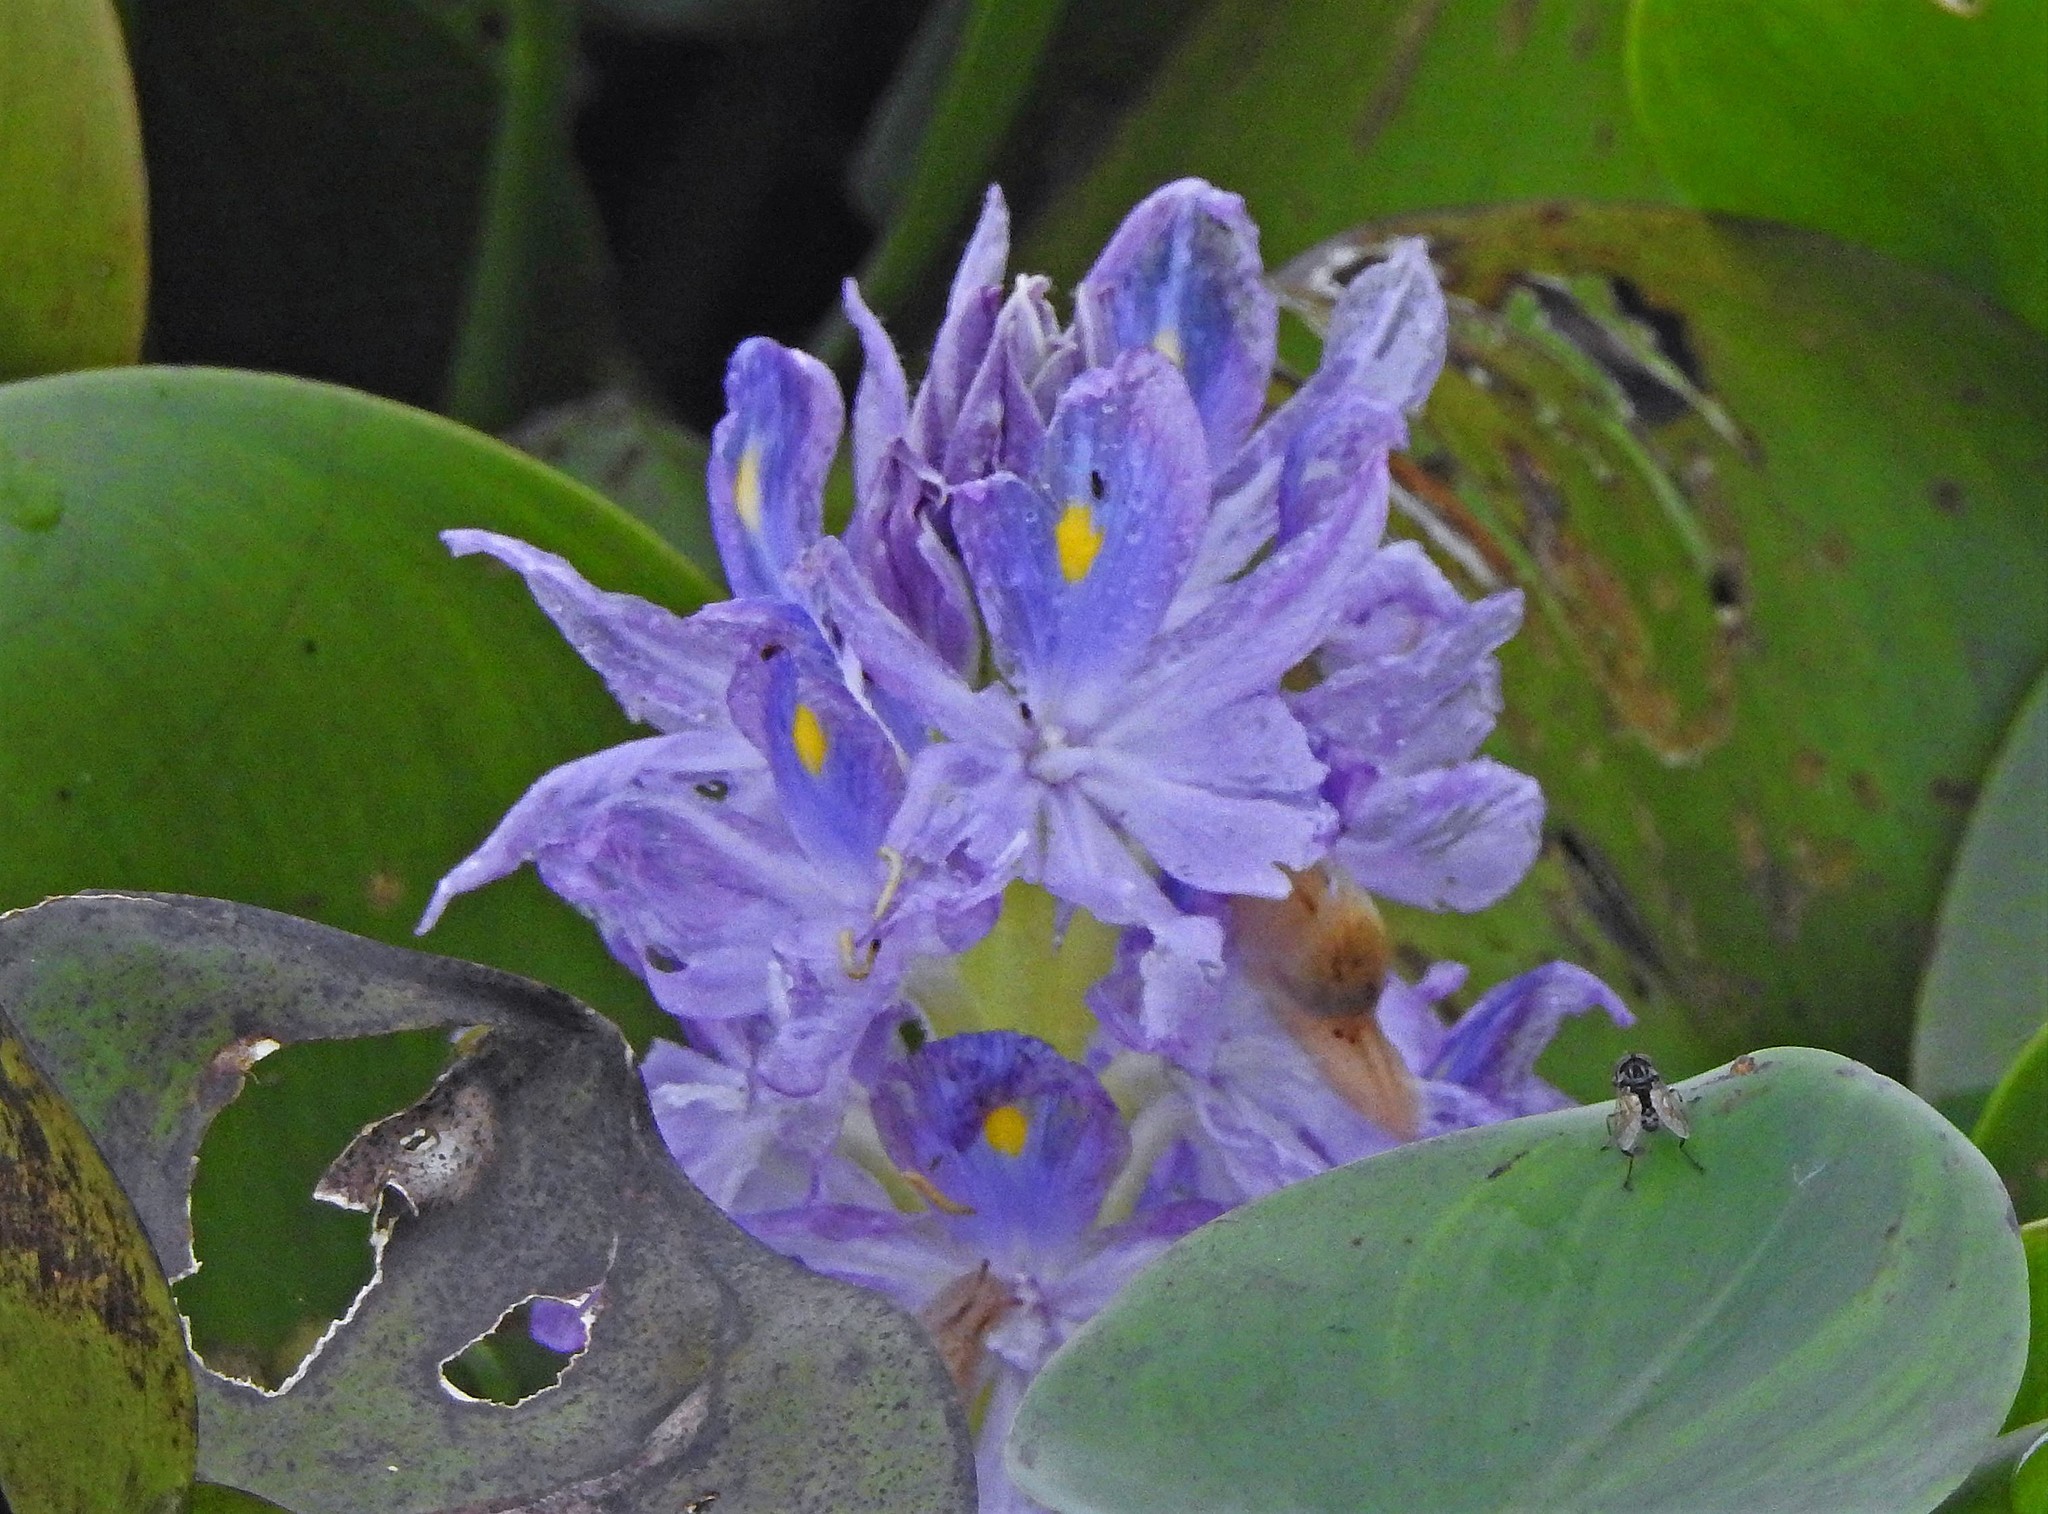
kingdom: Plantae
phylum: Tracheophyta
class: Liliopsida
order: Commelinales
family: Pontederiaceae
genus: Pontederia
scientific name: Pontederia crassipes
